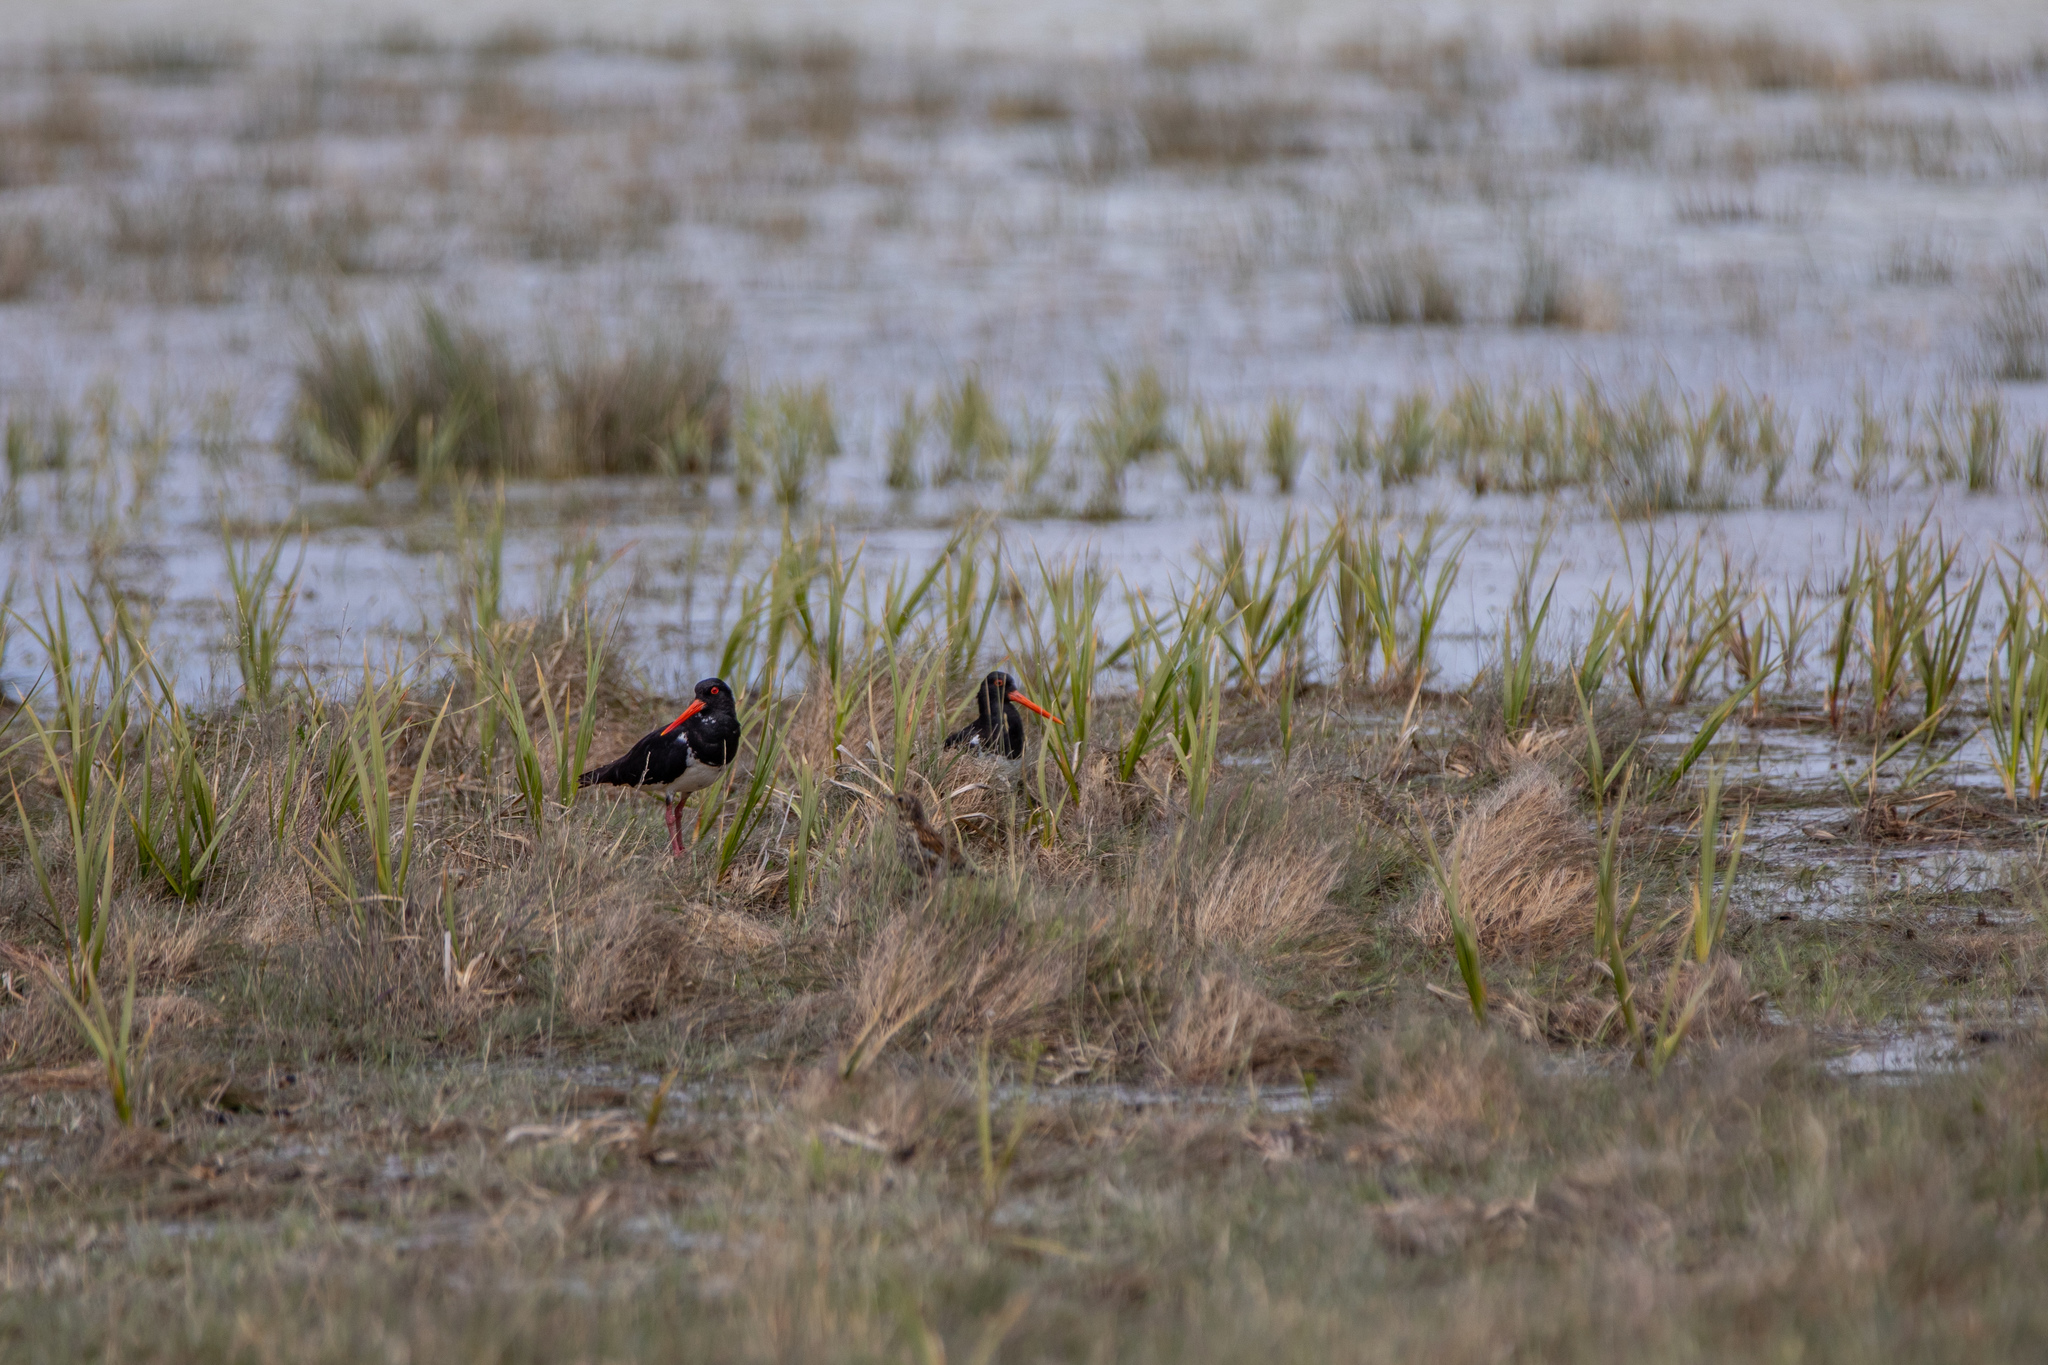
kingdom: Animalia
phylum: Chordata
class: Aves
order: Charadriiformes
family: Haematopodidae
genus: Haematopus
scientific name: Haematopus finschi
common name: South island oystercatcher
